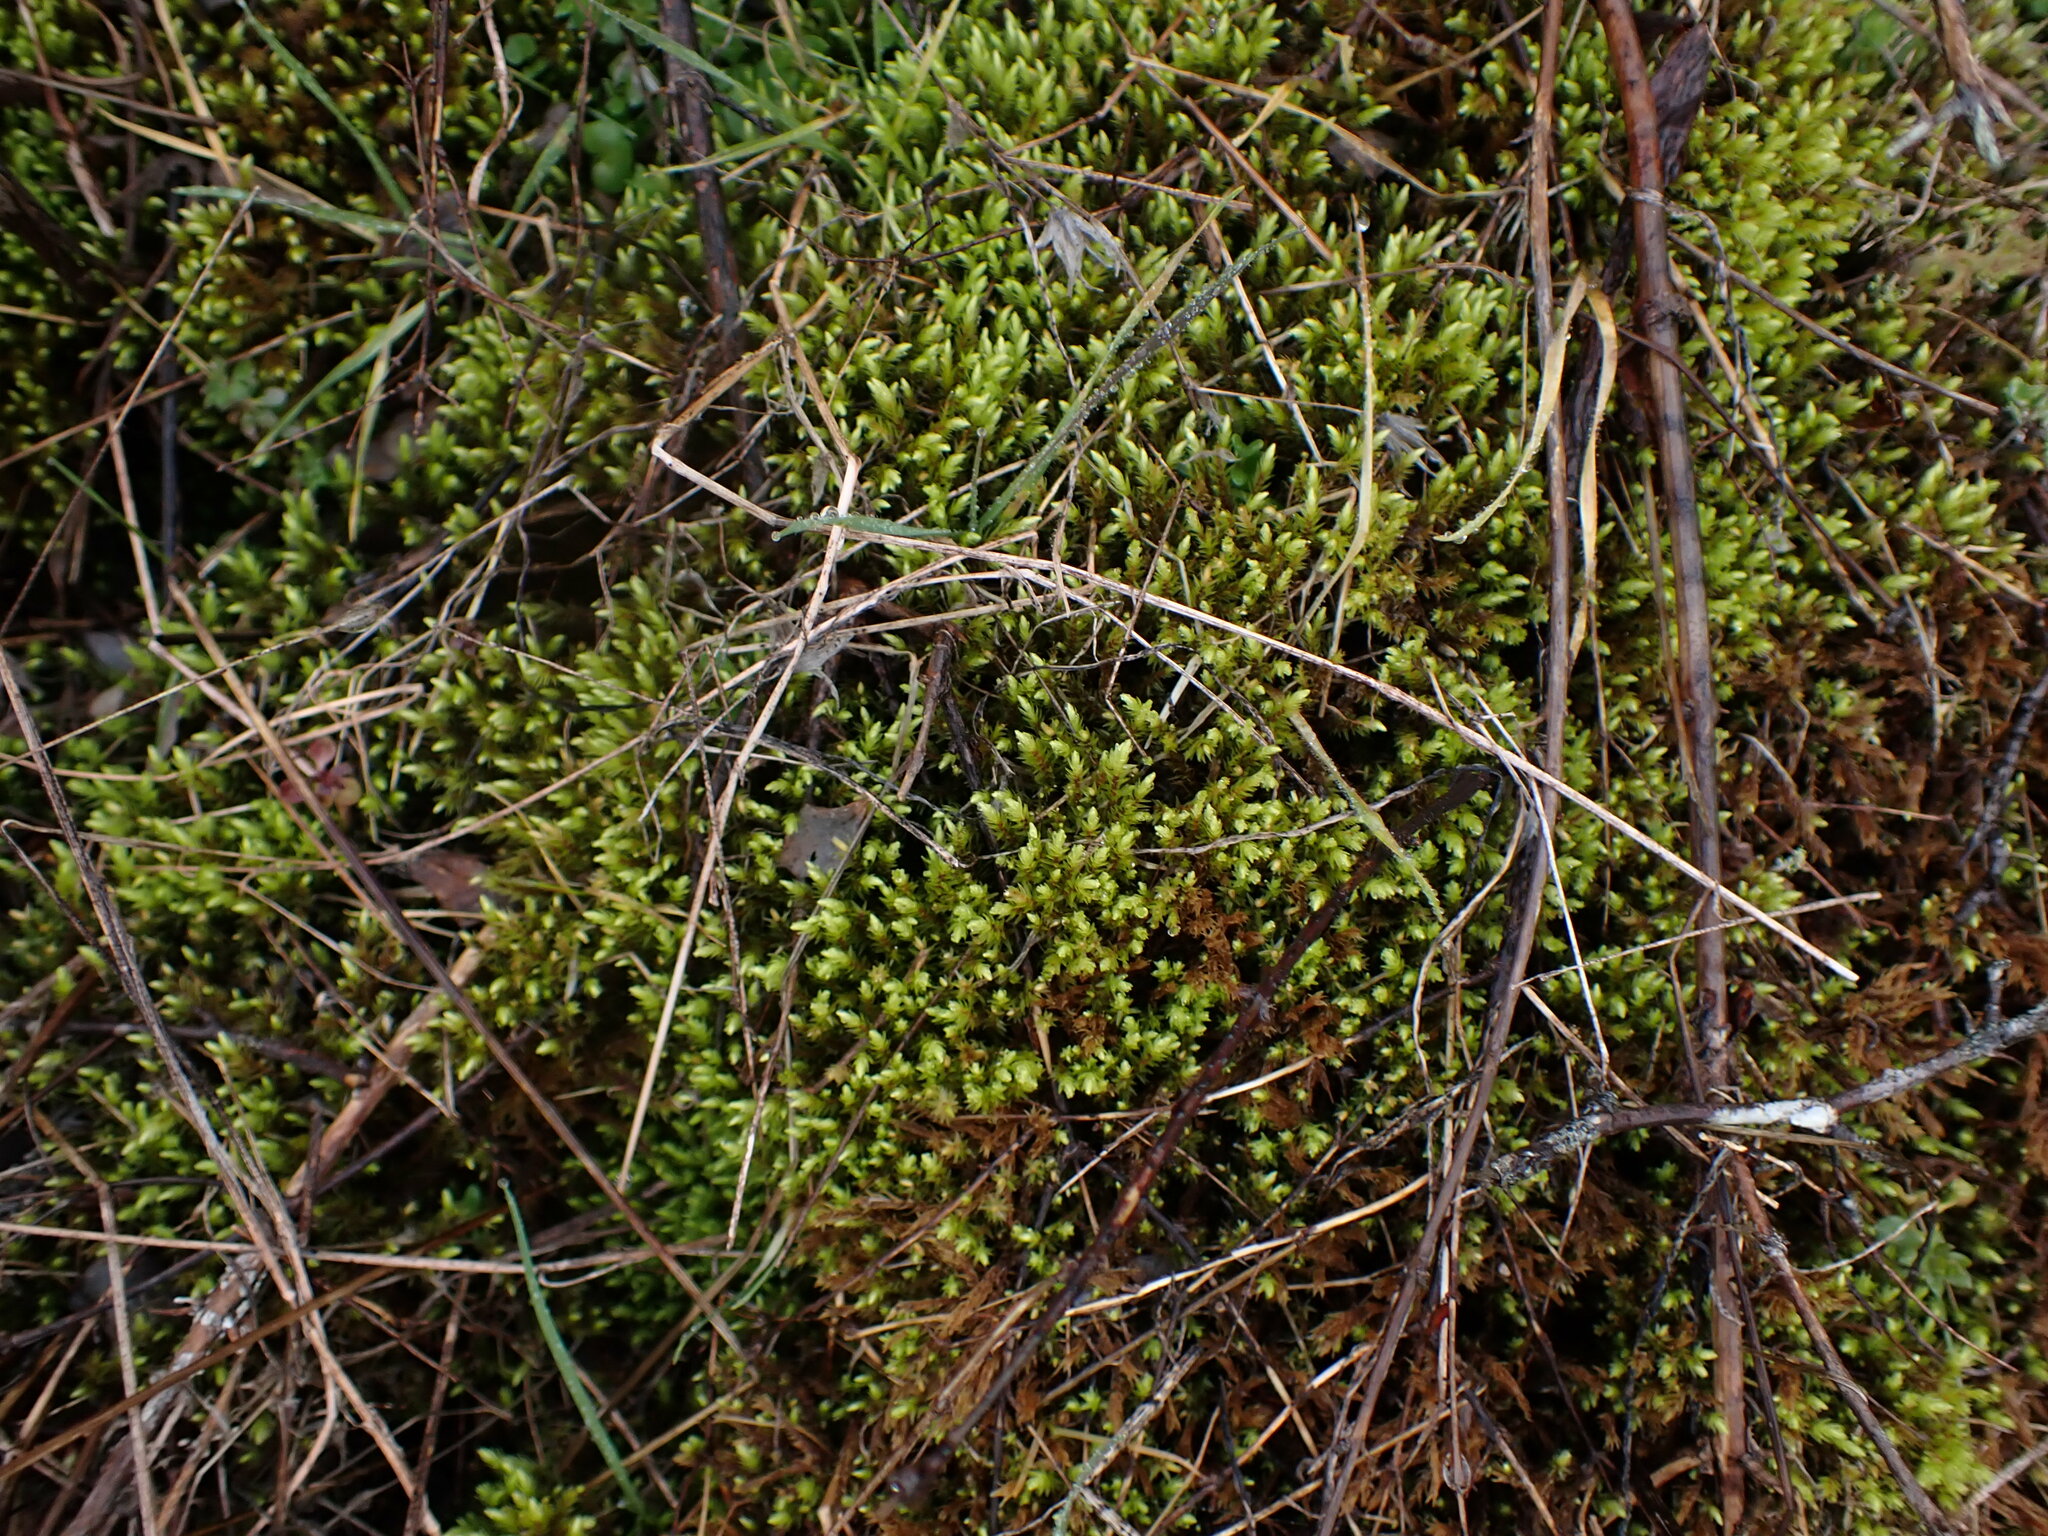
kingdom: Plantae
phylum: Bryophyta
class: Bryopsida
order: Aulacomniales
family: Aulacomniaceae
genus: Aulacomnium
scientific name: Aulacomnium palustre
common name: Bog groove-moss
